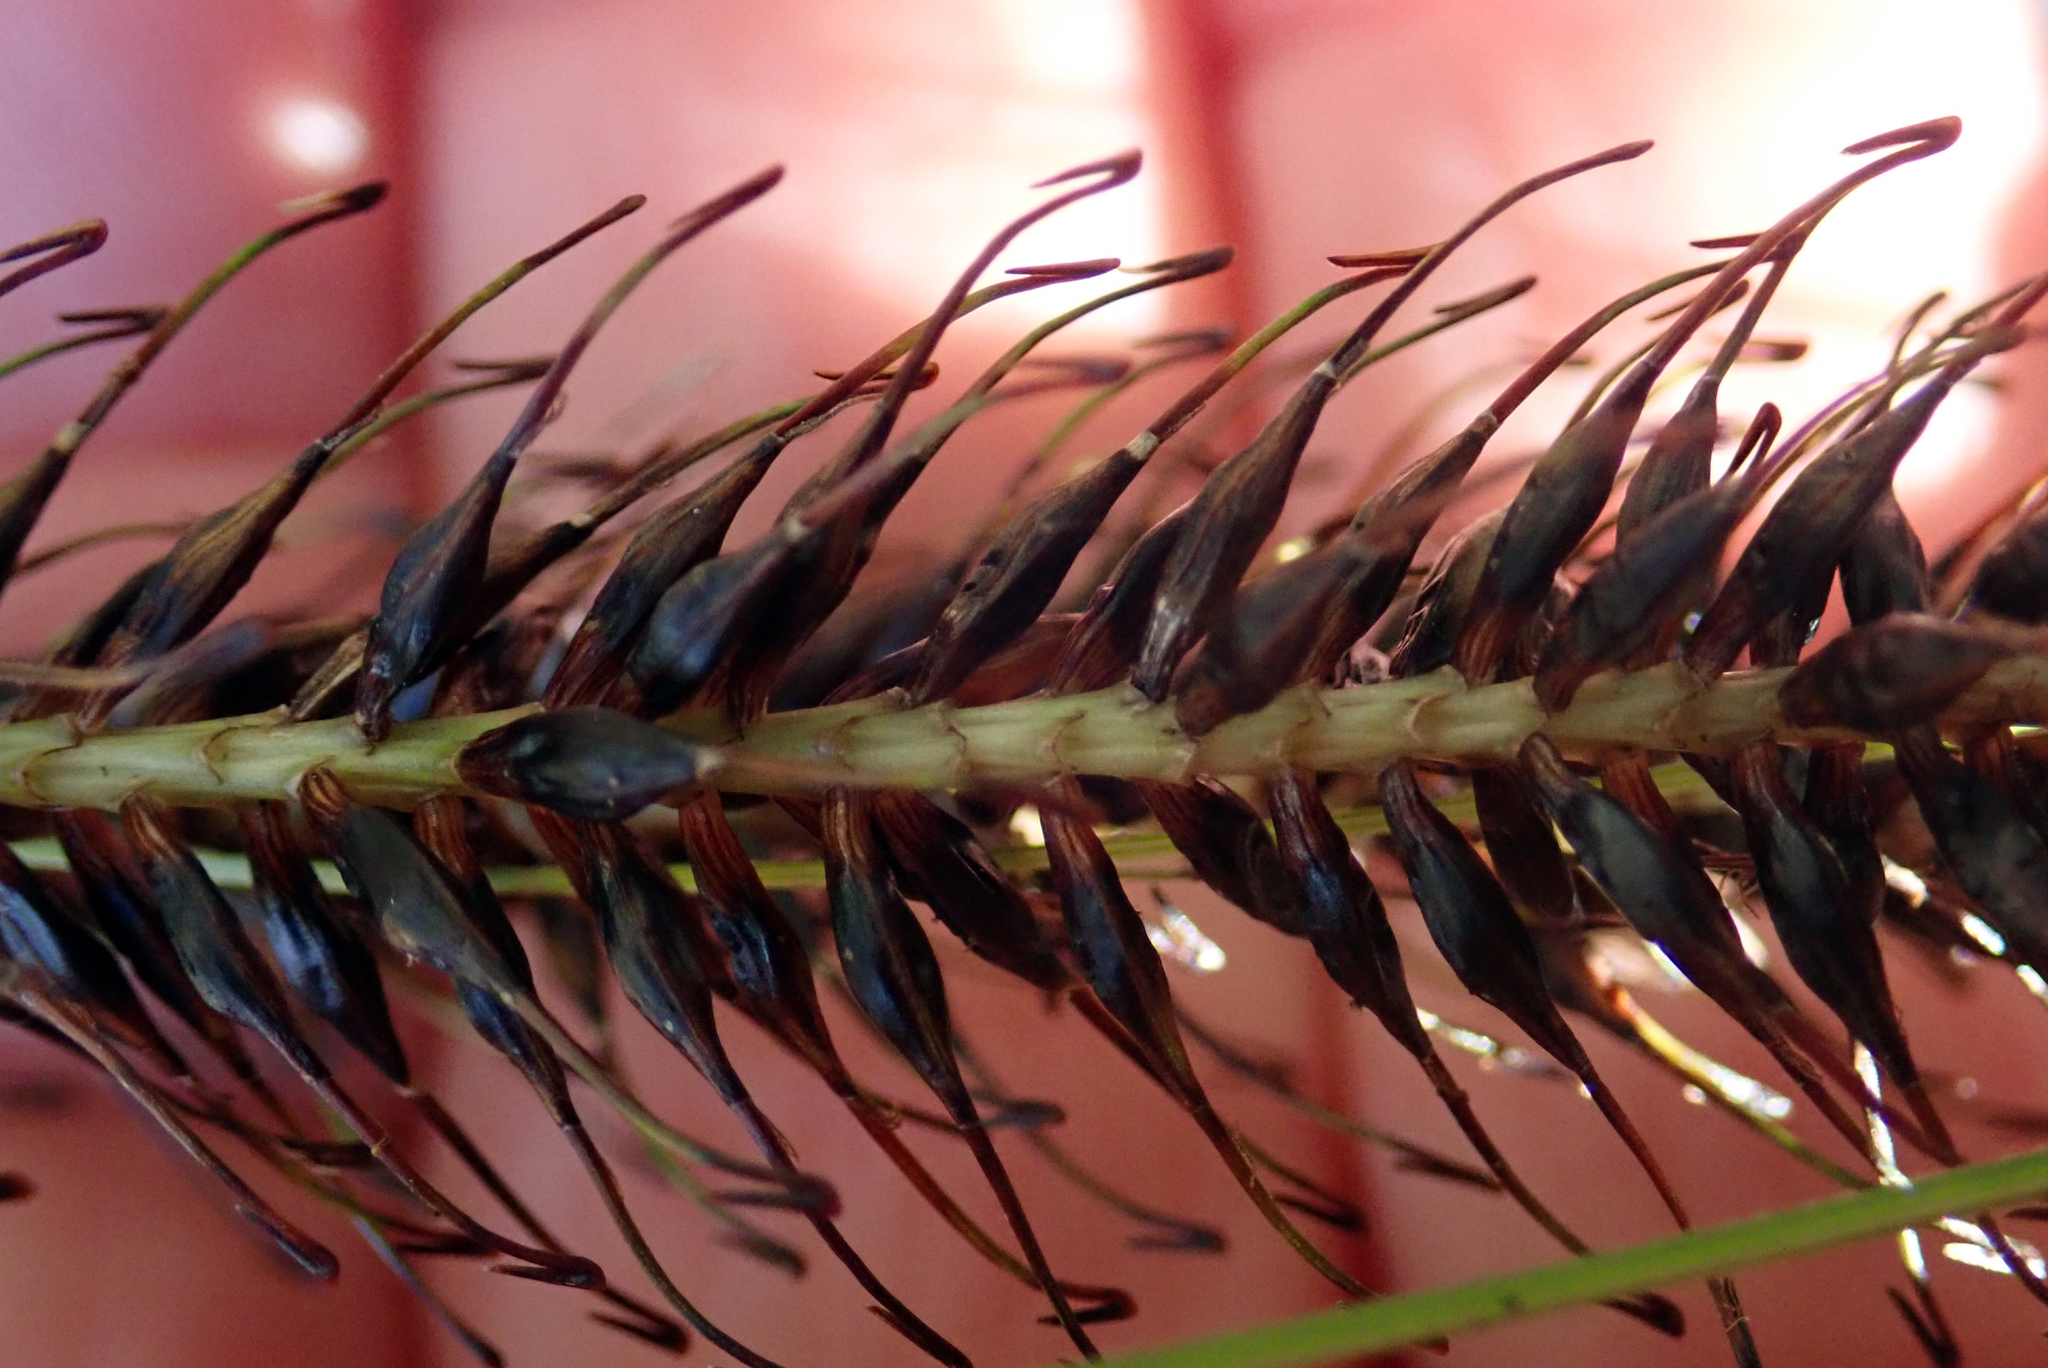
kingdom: Plantae
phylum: Tracheophyta
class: Liliopsida
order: Poales
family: Cyperaceae
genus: Carex
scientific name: Carex corynoidea
